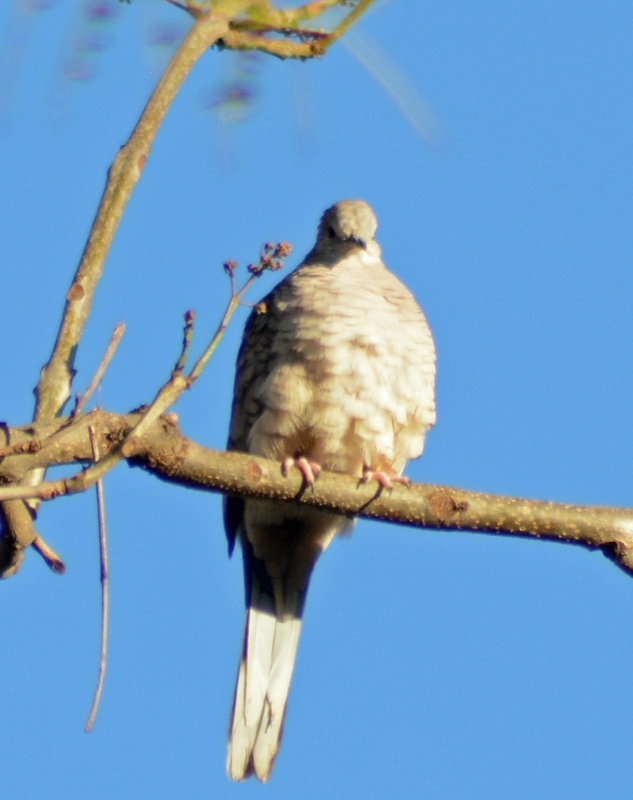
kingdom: Animalia
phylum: Chordata
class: Aves
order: Columbiformes
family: Columbidae
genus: Columbina
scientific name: Columbina inca
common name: Inca dove
